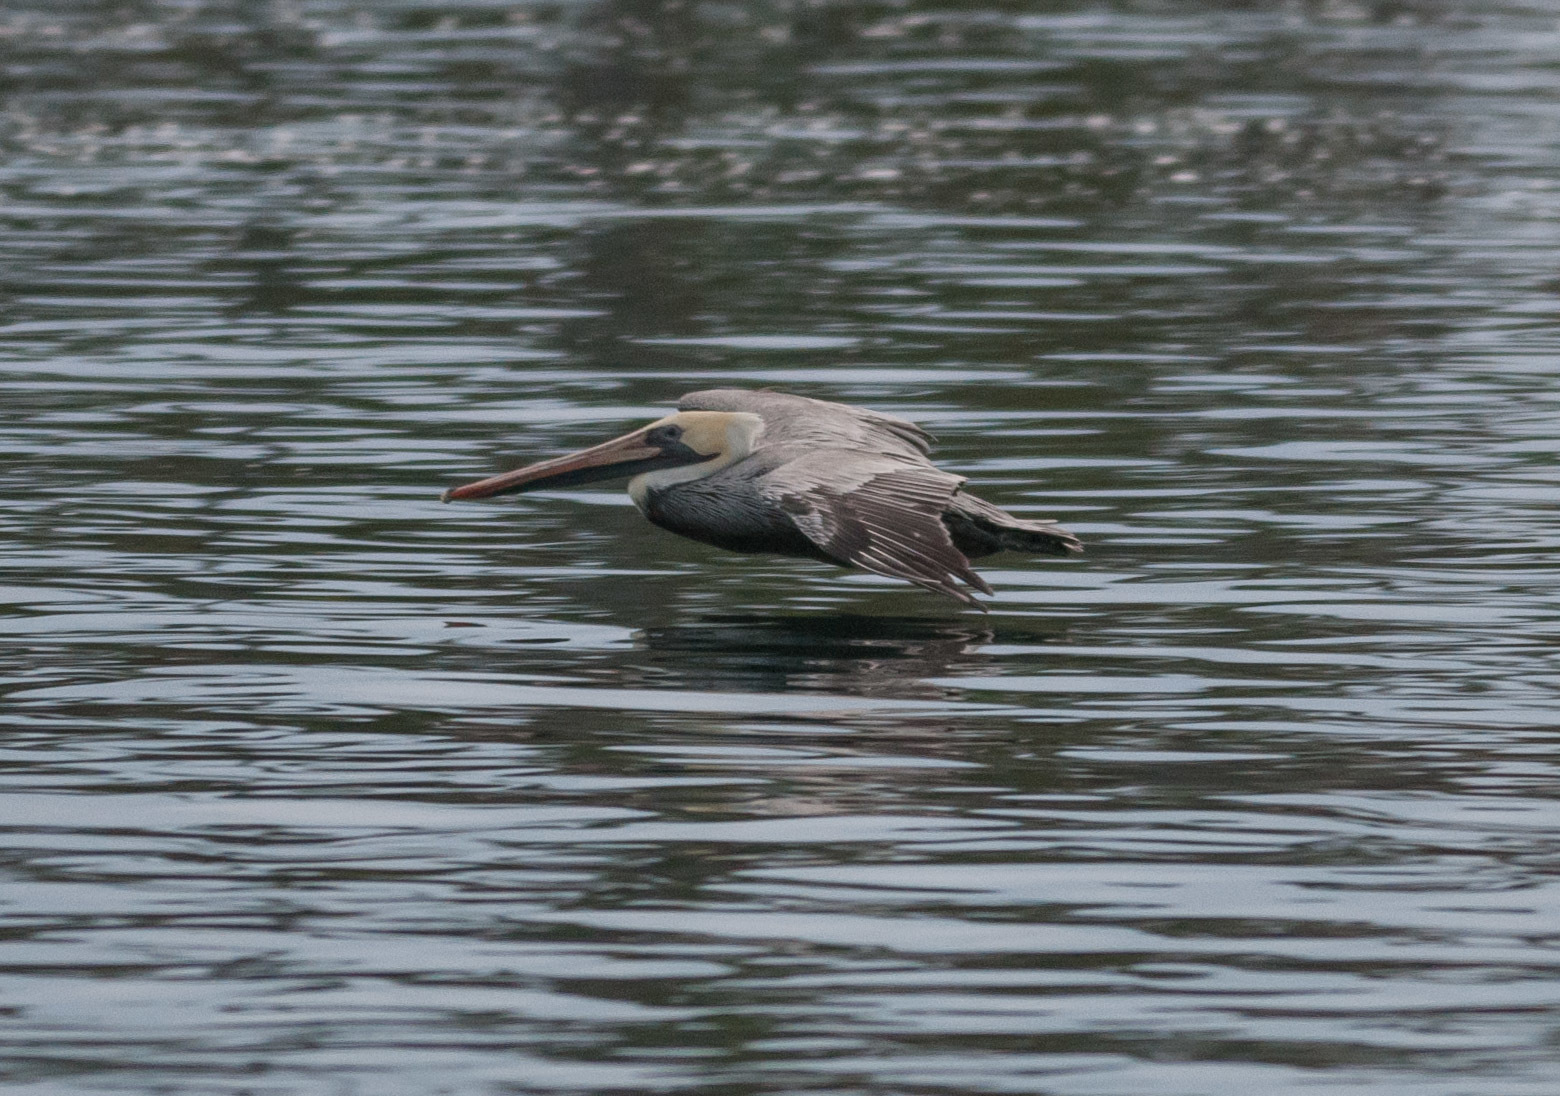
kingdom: Animalia
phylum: Chordata
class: Aves
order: Pelecaniformes
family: Pelecanidae
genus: Pelecanus
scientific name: Pelecanus occidentalis
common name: Brown pelican
